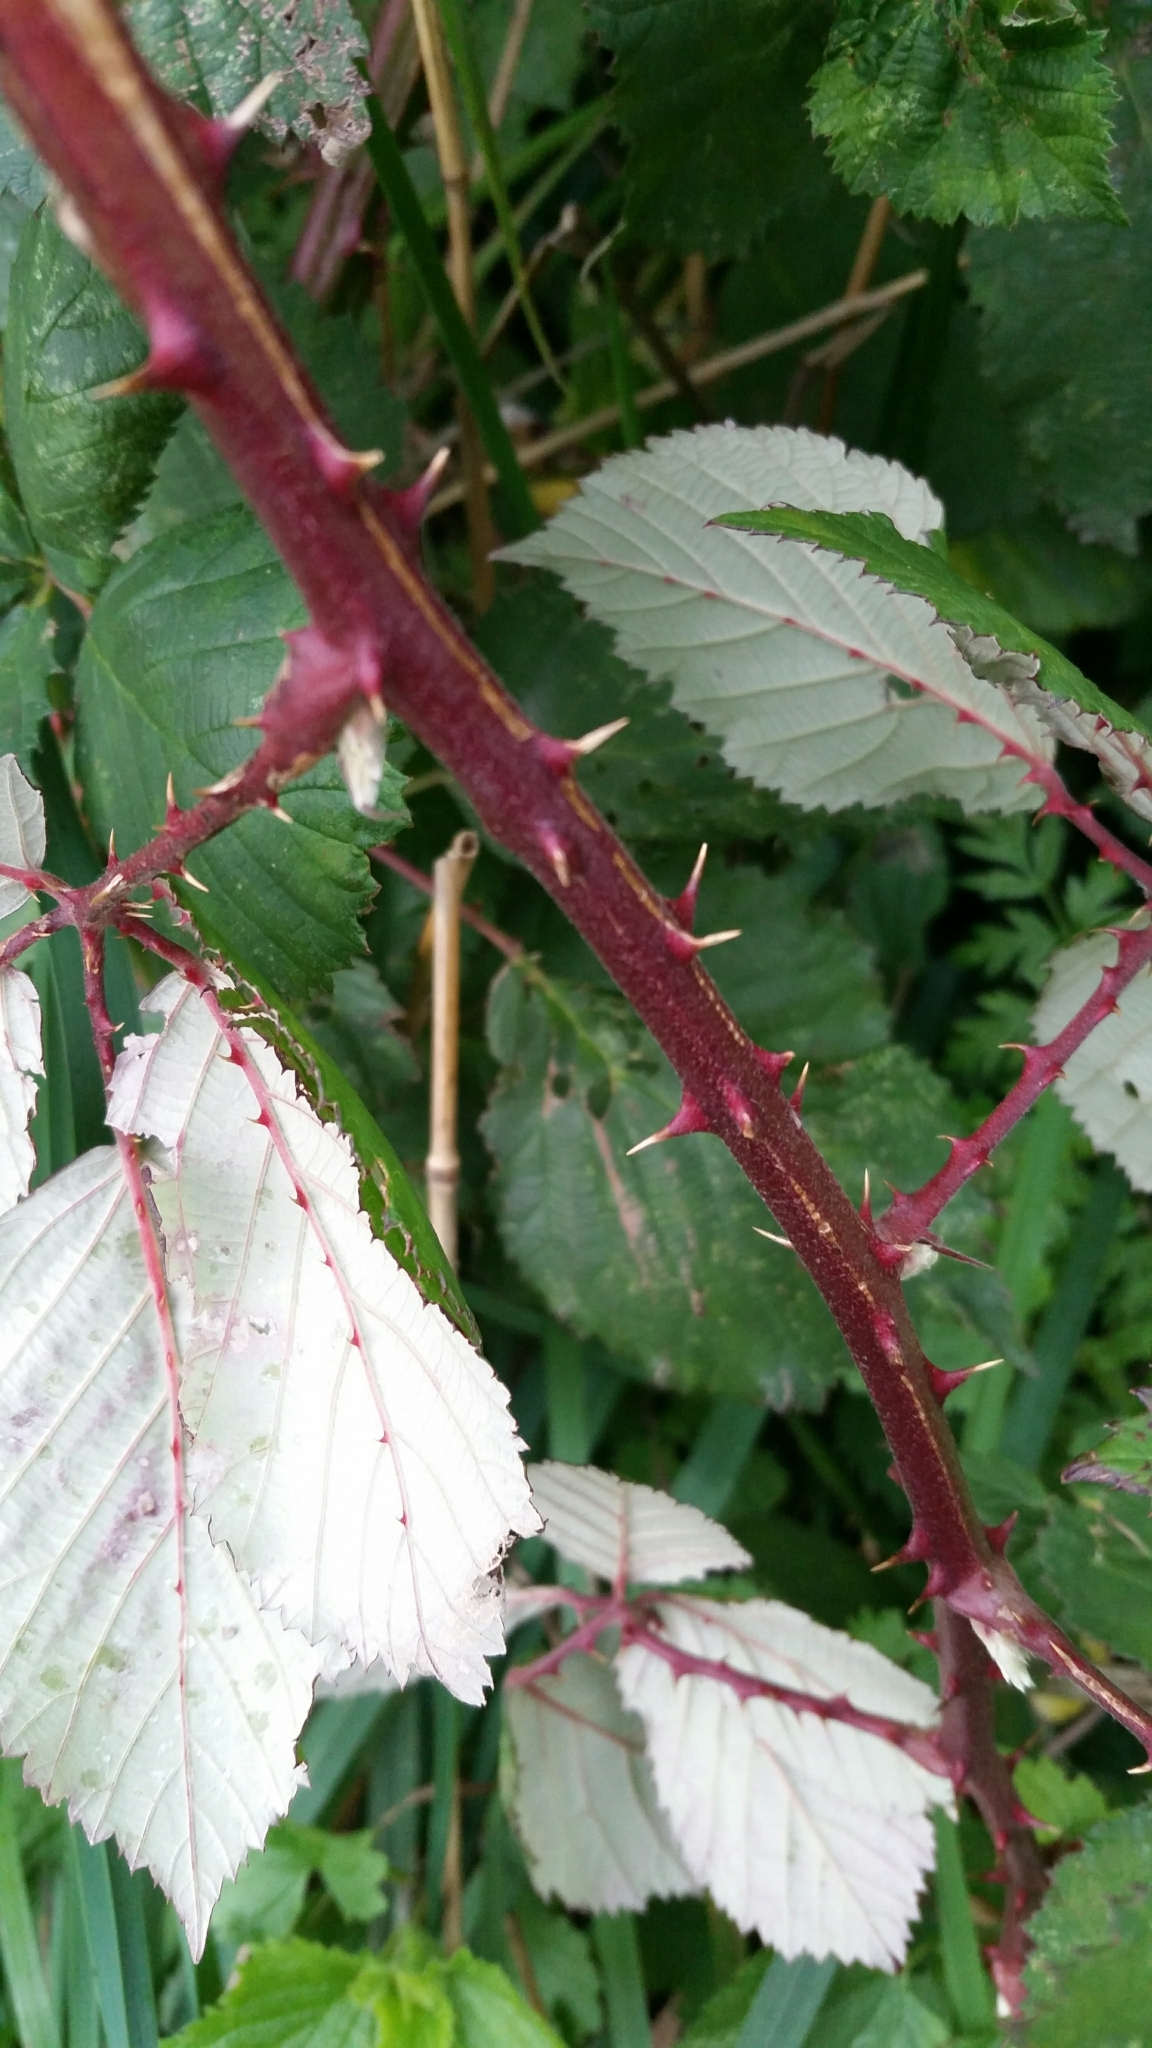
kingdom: Plantae
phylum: Tracheophyta
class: Magnoliopsida
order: Rosales
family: Rosaceae
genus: Rubus
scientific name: Rubus armeniacus
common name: Himalayan blackberry
